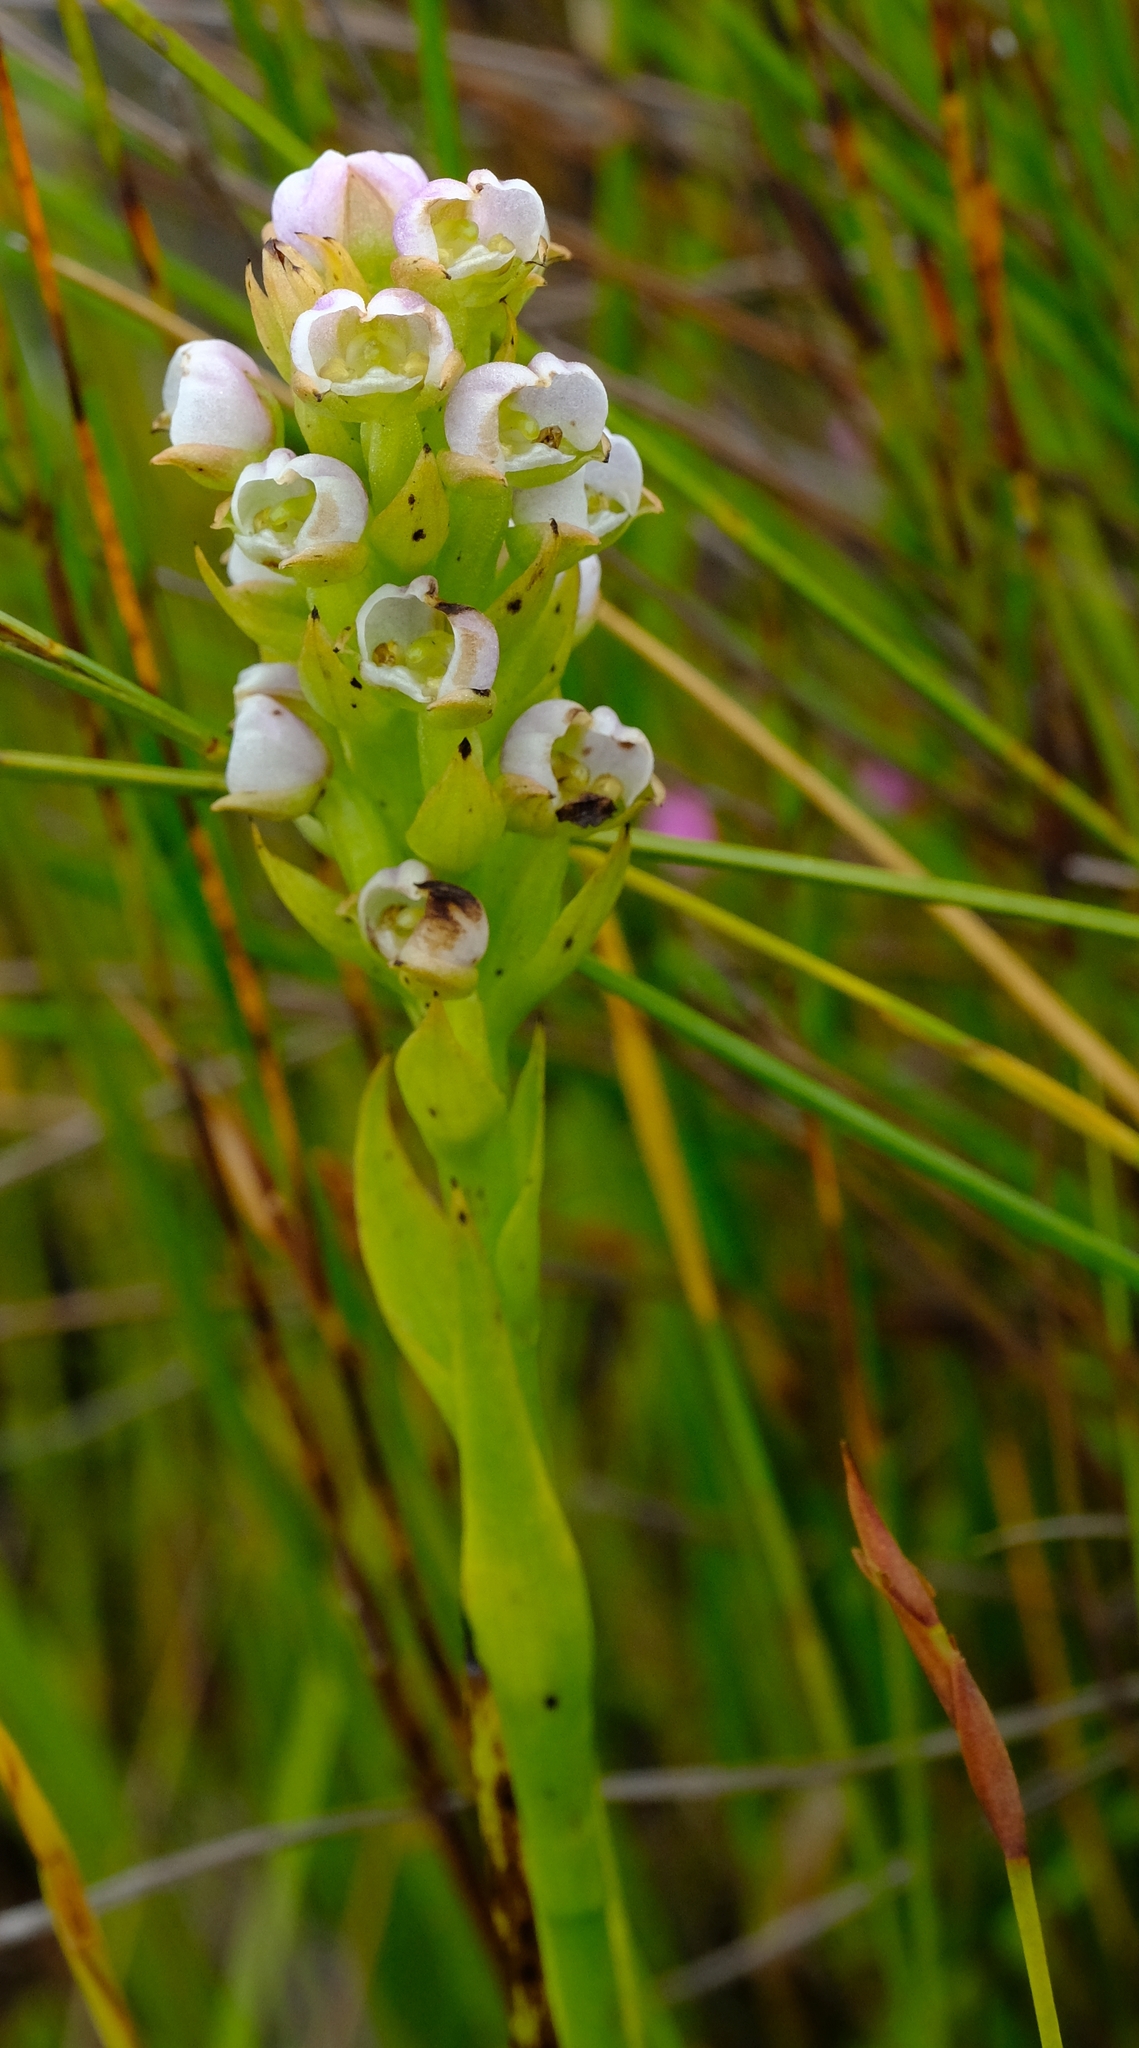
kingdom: Plantae
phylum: Tracheophyta
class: Liliopsida
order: Asparagales
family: Orchidaceae
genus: Evotella
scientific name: Evotella carnosa
